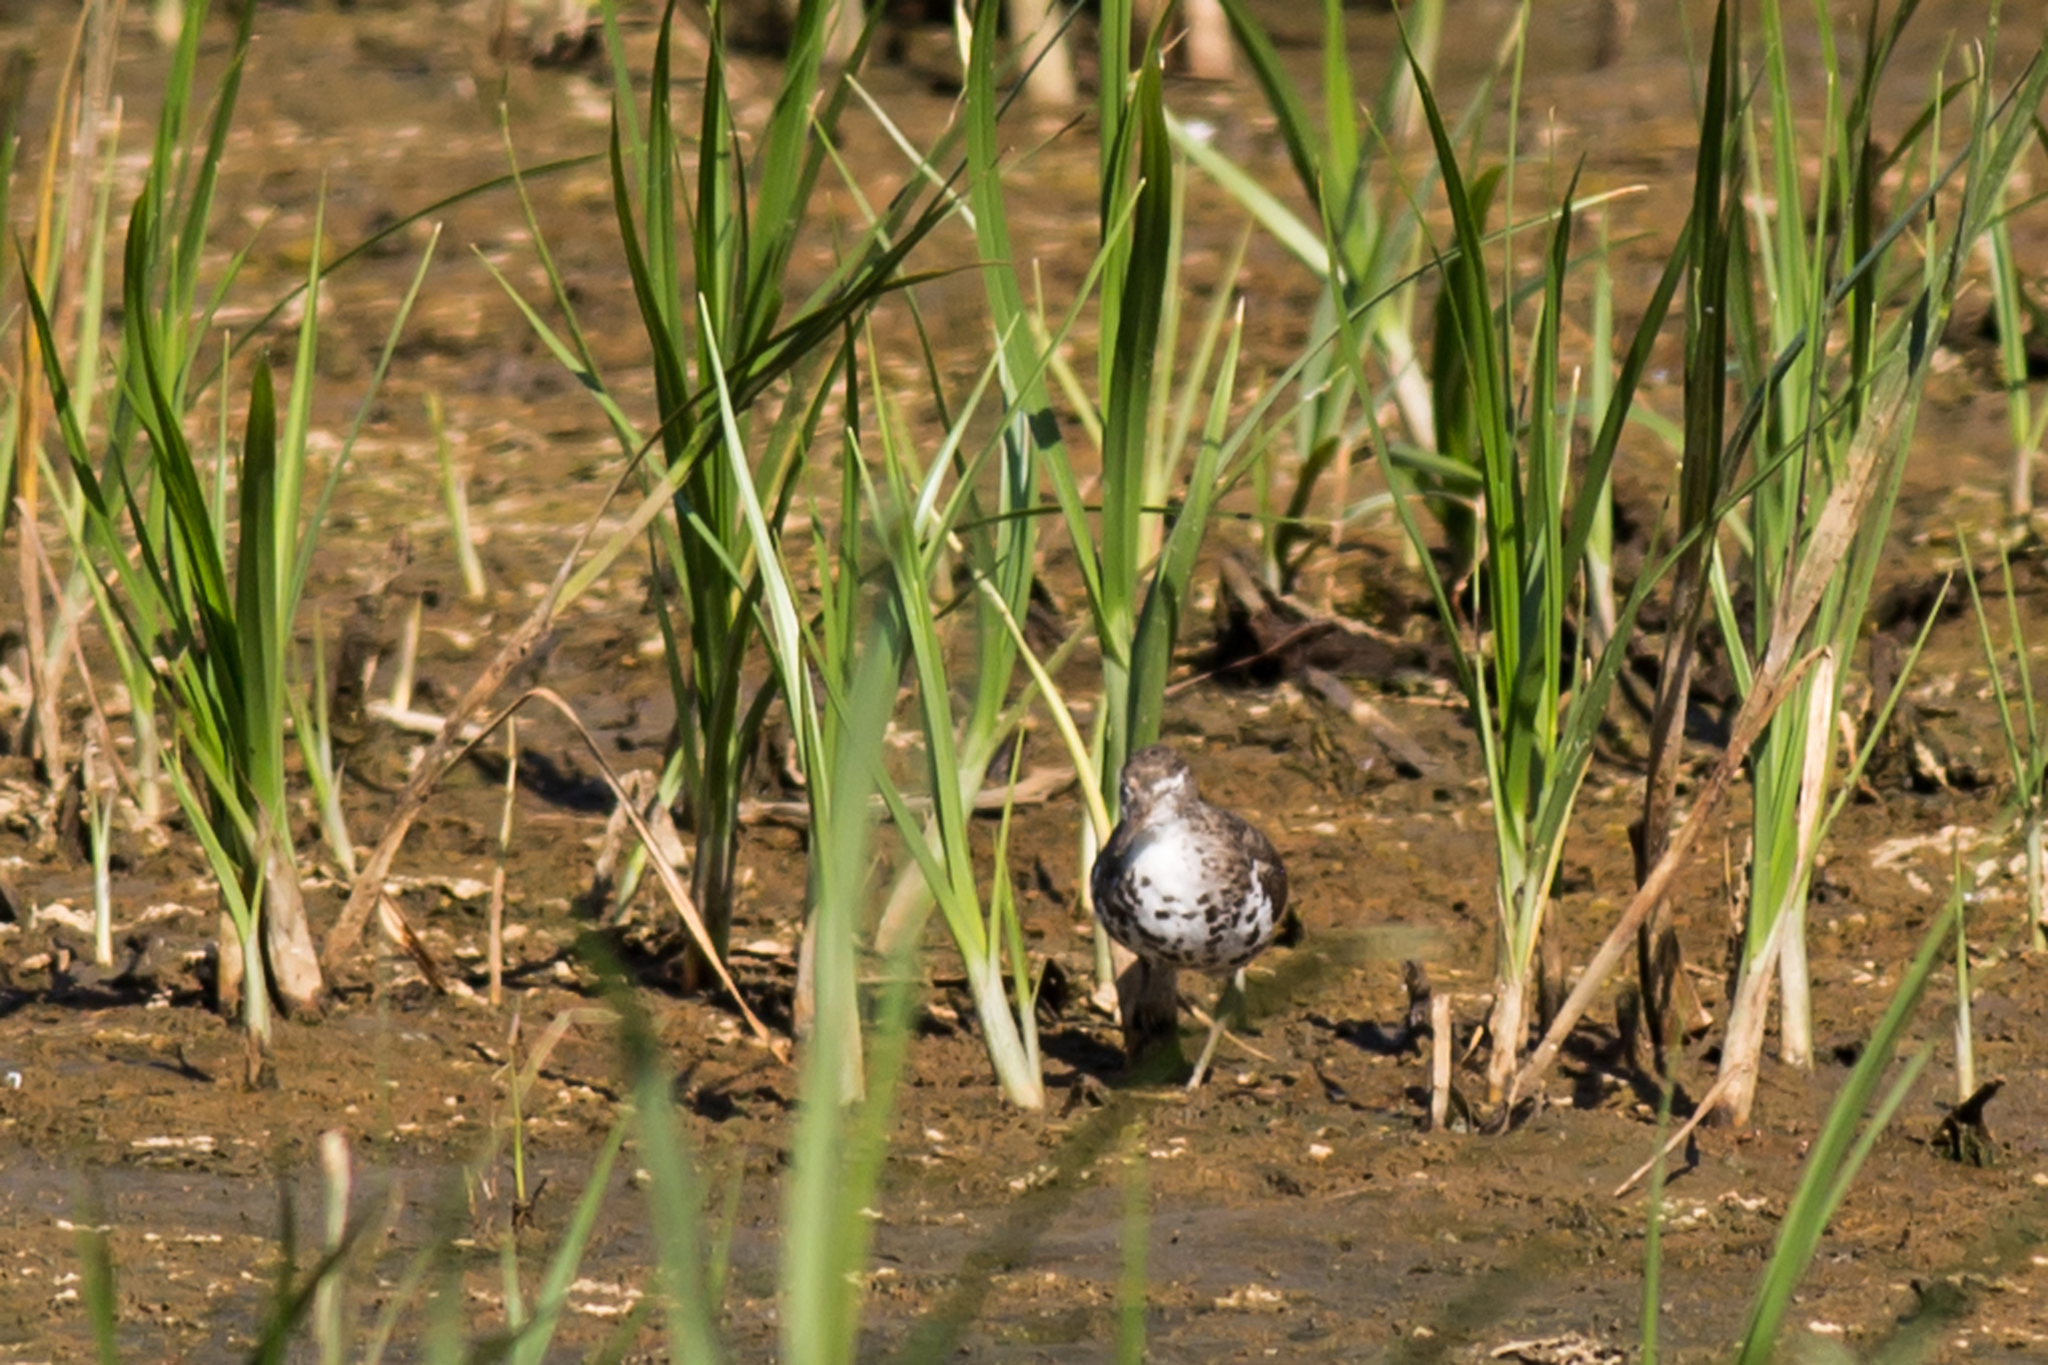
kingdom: Animalia
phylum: Chordata
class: Aves
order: Charadriiformes
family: Scolopacidae
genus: Actitis
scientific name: Actitis macularius
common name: Spotted sandpiper
